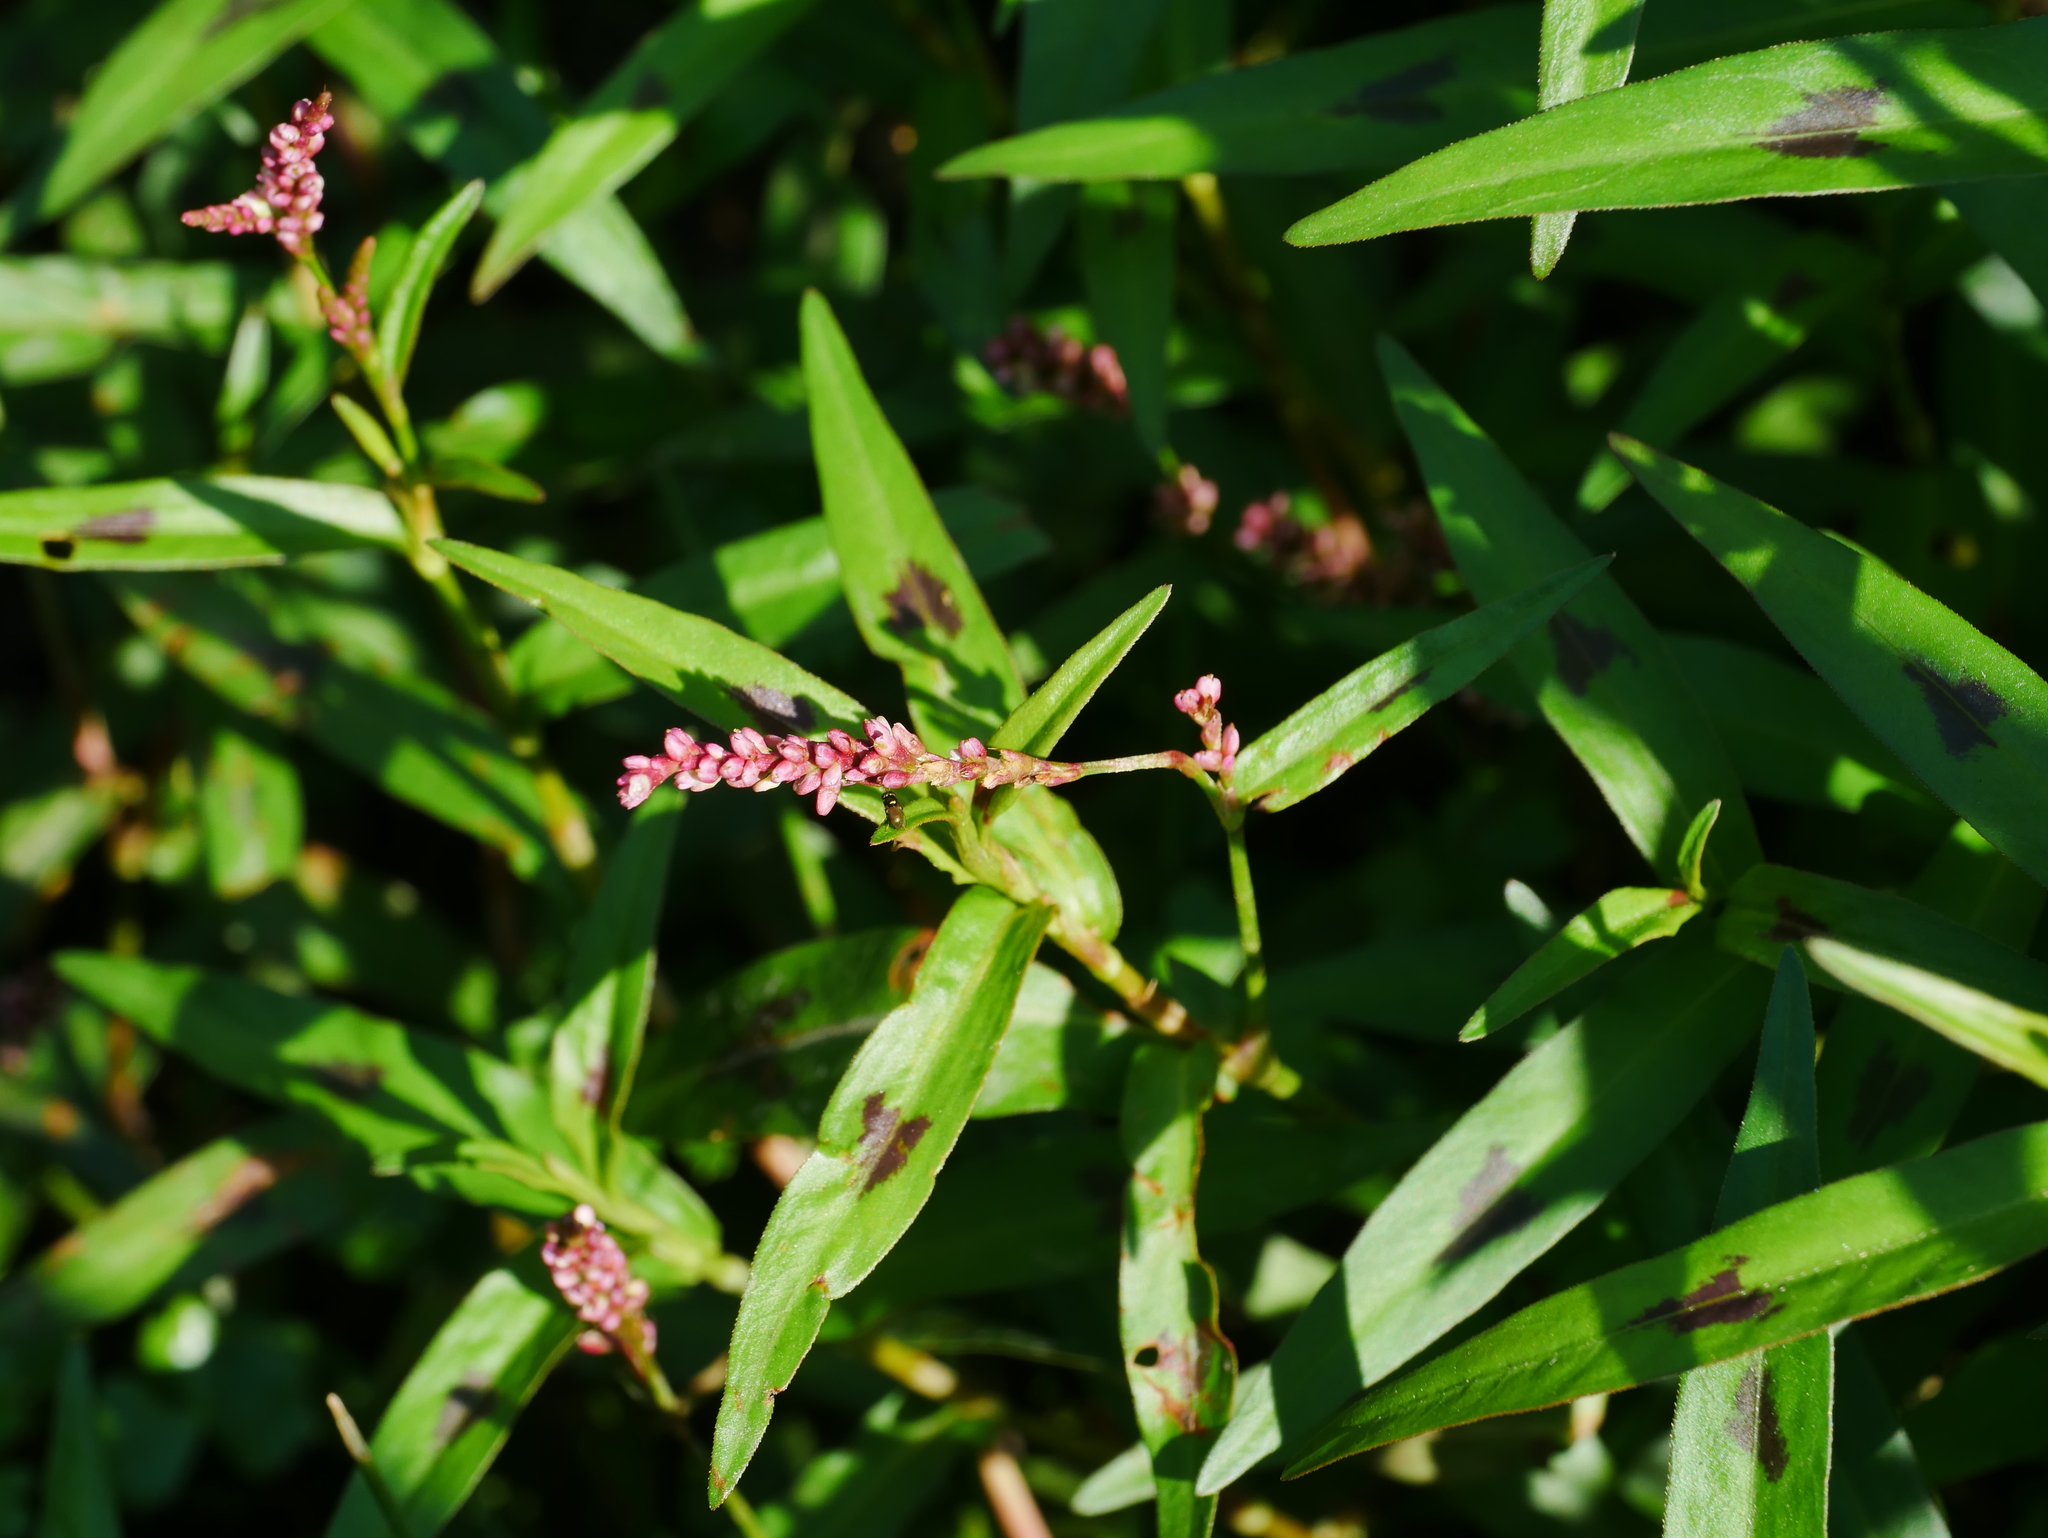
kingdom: Plantae
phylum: Tracheophyta
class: Magnoliopsida
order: Caryophyllales
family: Polygonaceae
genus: Persicaria
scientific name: Persicaria longiseta
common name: Bristly lady's-thumb
